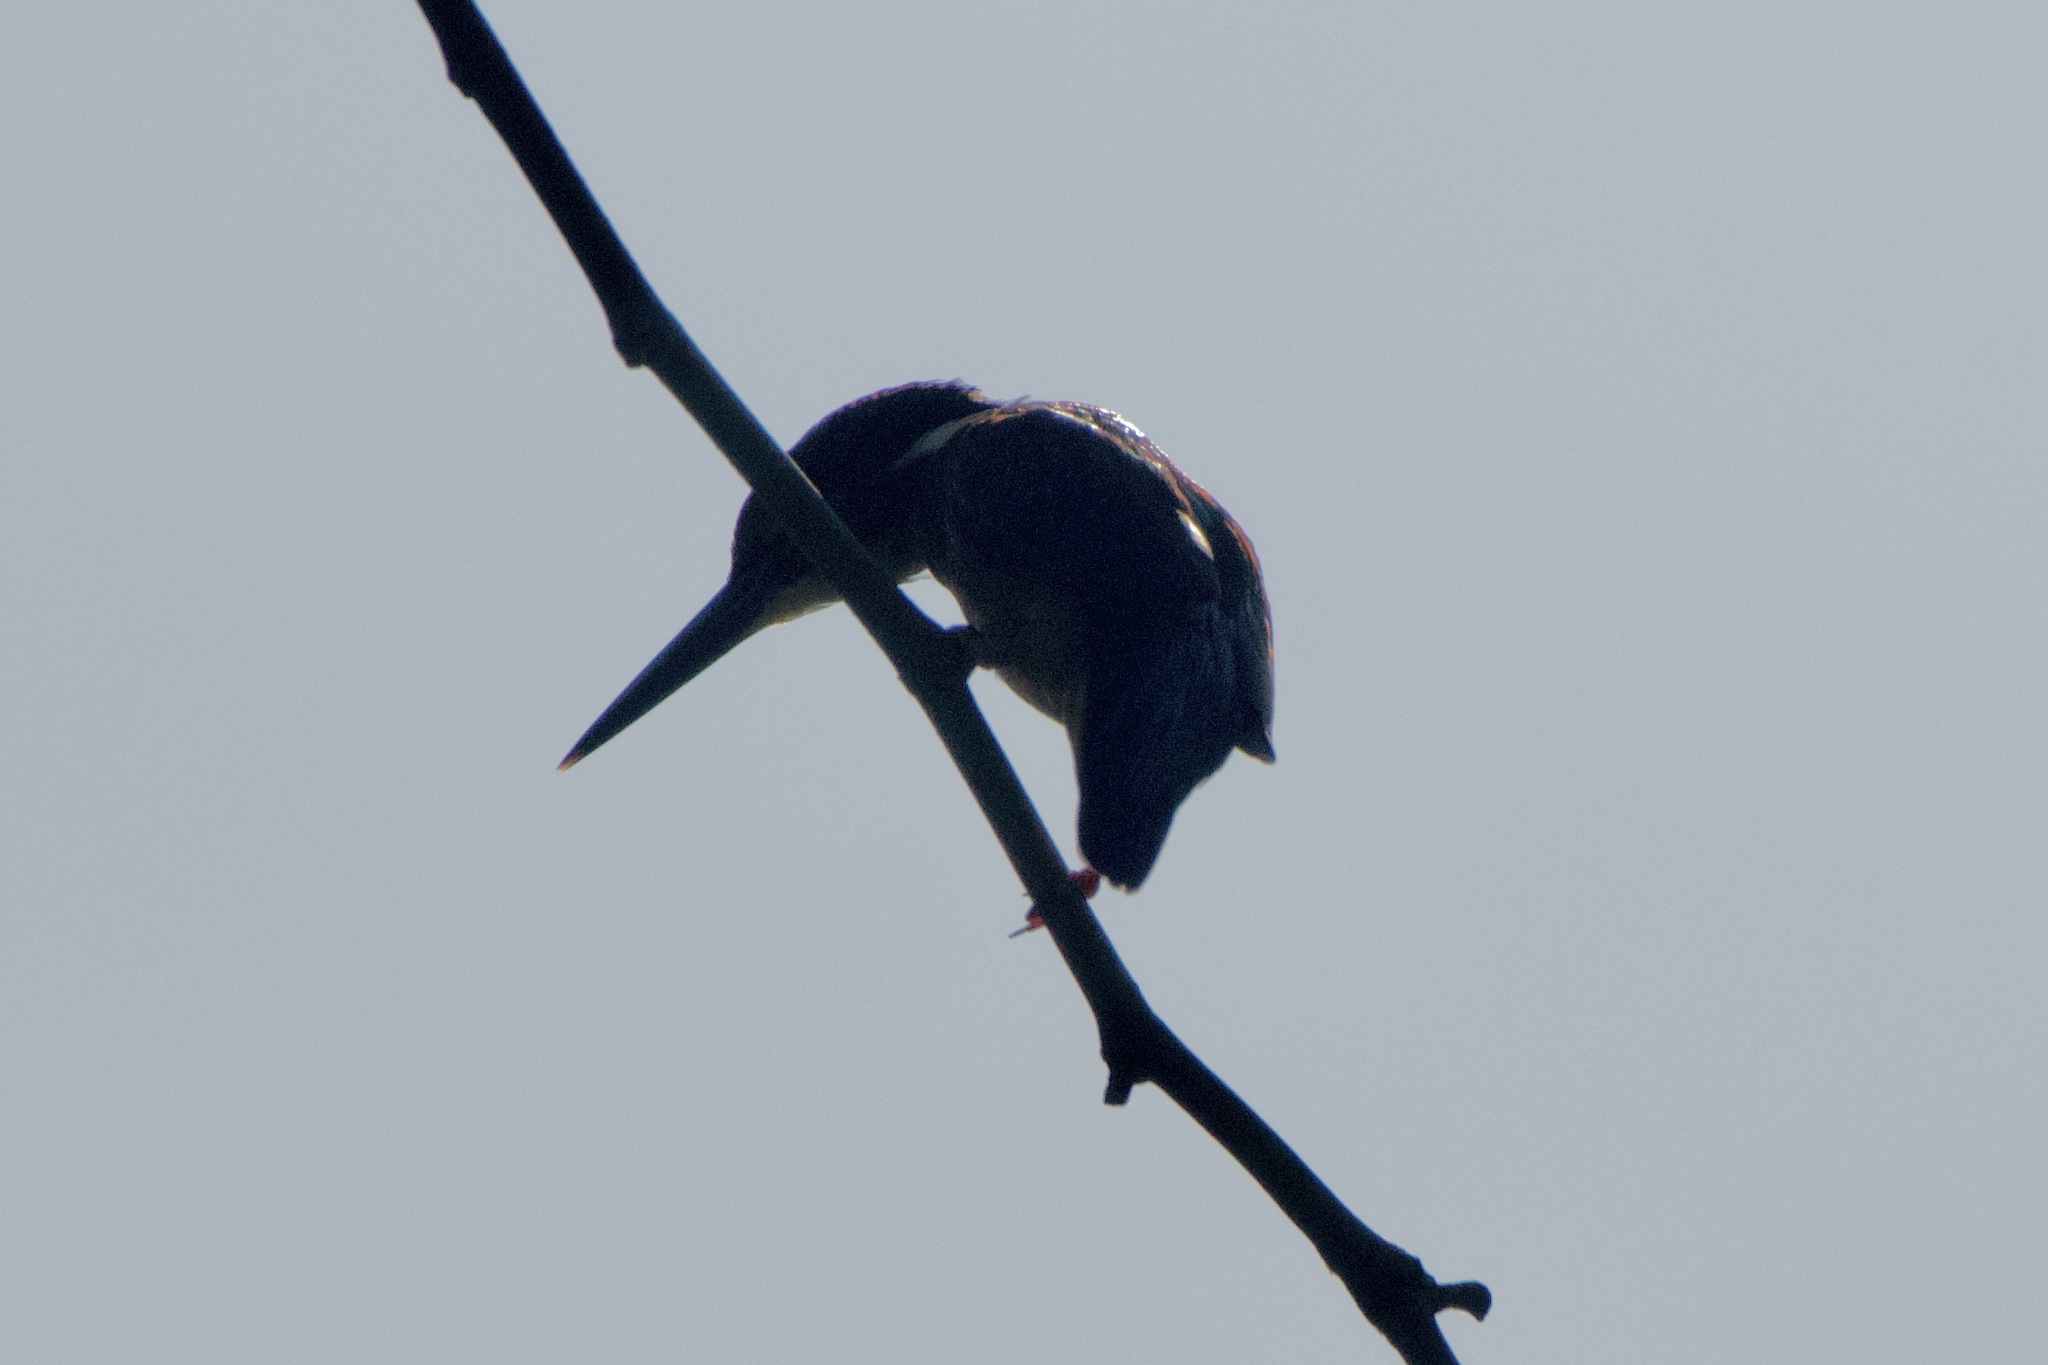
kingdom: Animalia
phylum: Chordata
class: Aves
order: Coraciiformes
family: Alcedinidae
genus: Alcedo
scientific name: Alcedo atthis
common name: Common kingfisher
